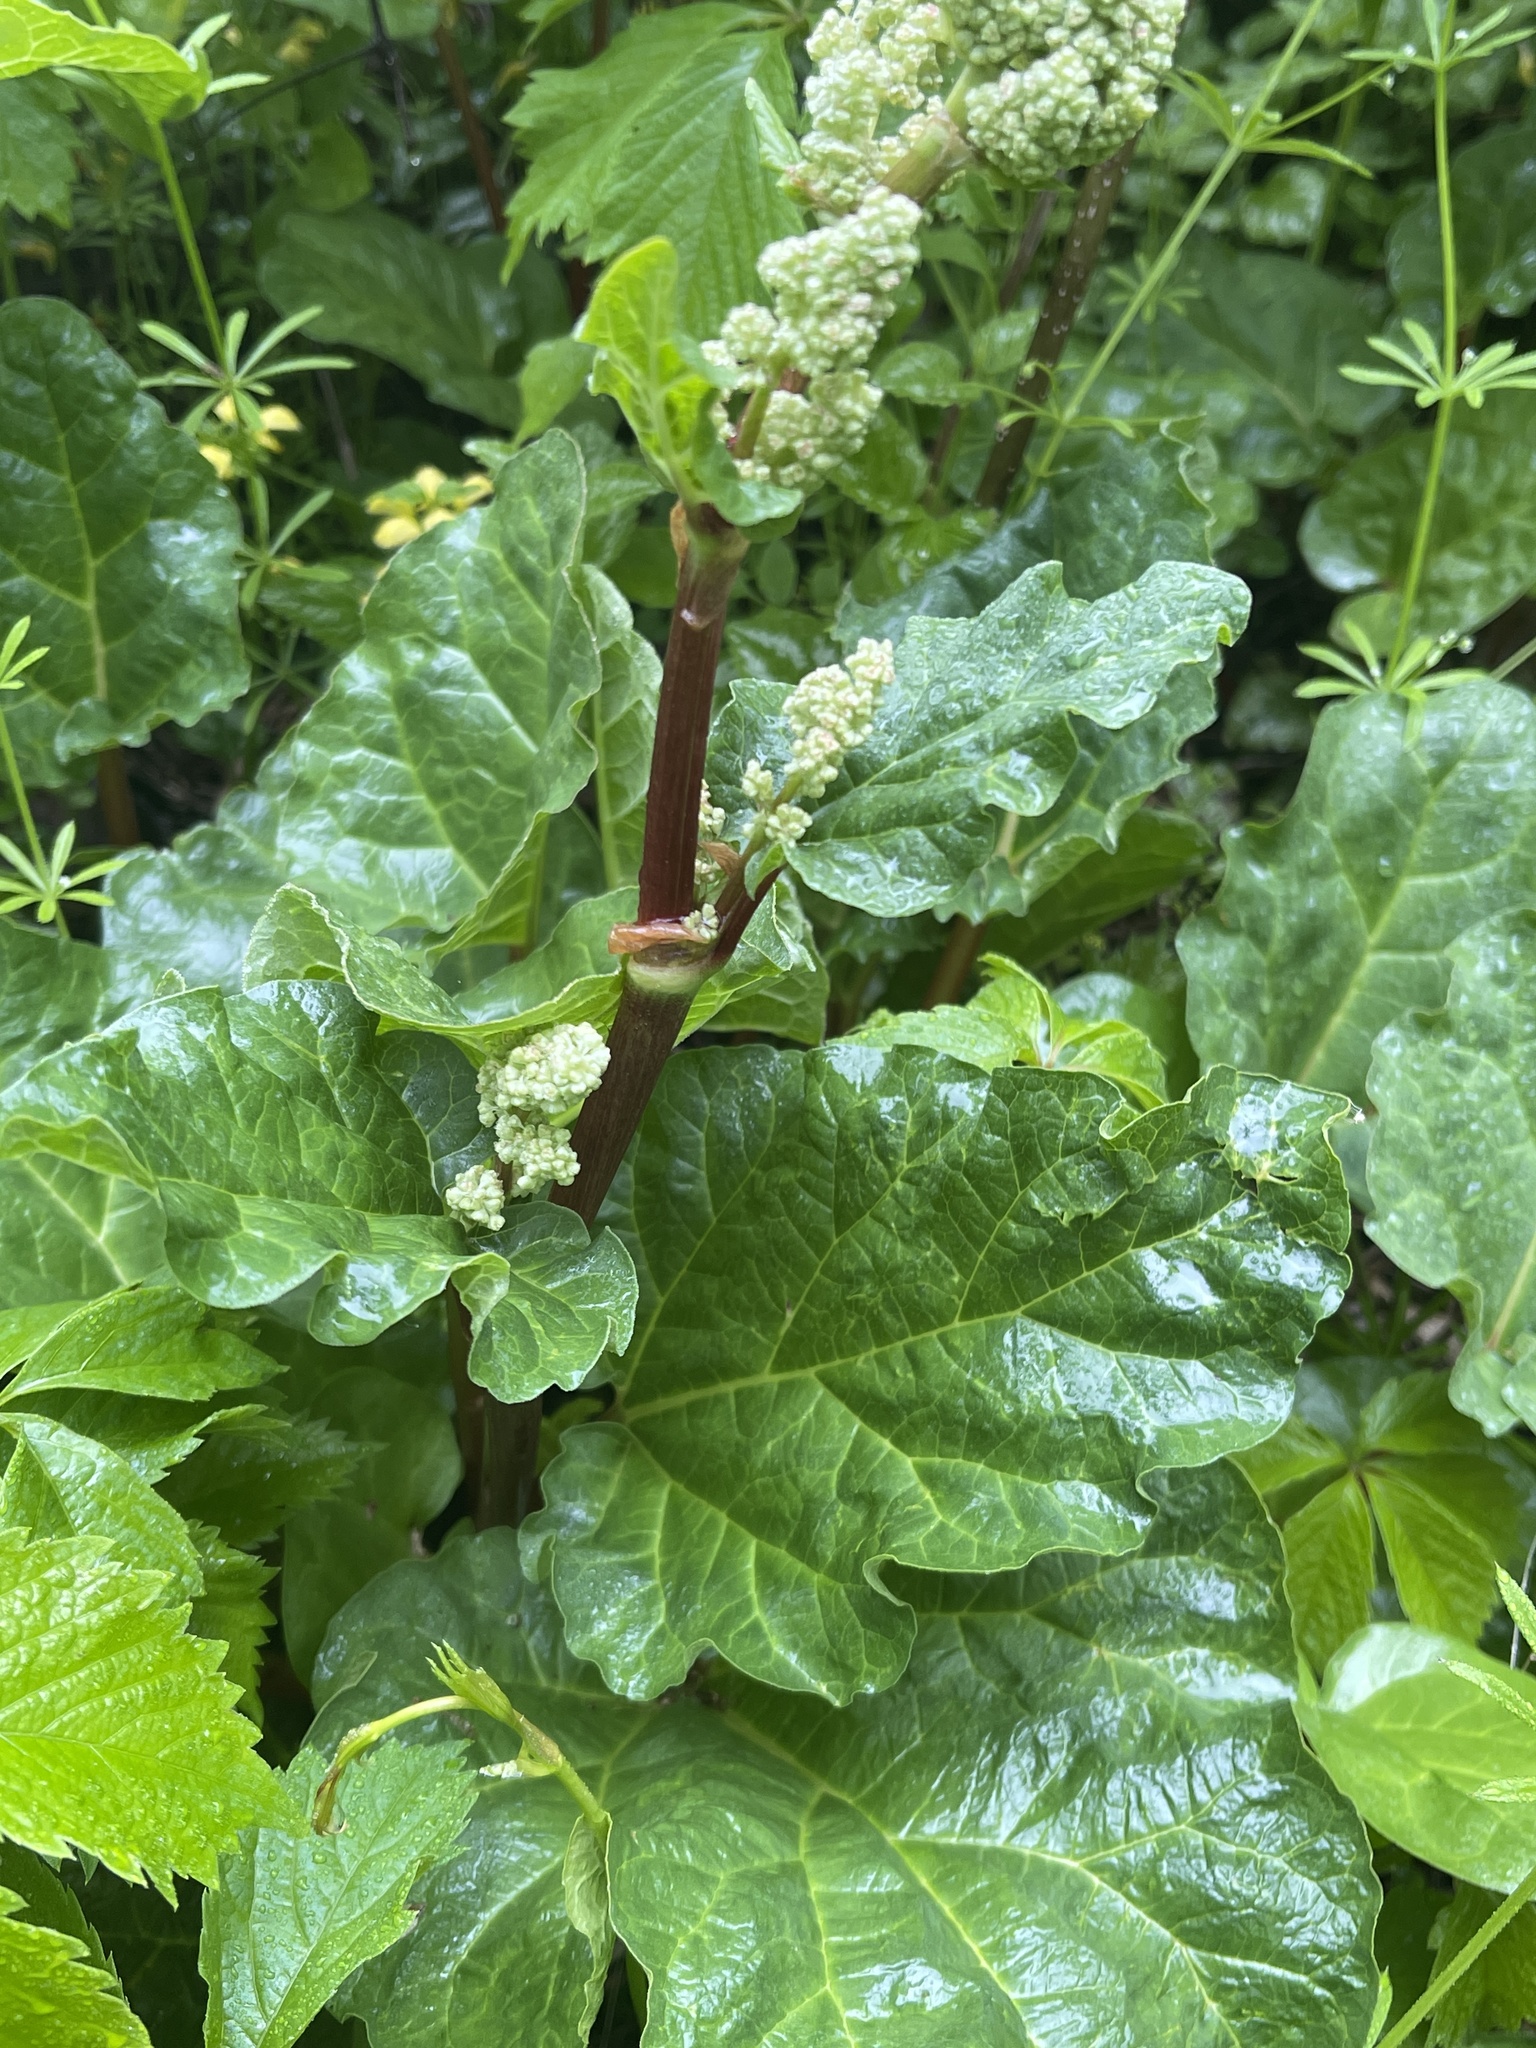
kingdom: Plantae
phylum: Tracheophyta
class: Magnoliopsida
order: Caryophyllales
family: Polygonaceae
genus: Rheum
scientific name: Rheum rhabarbarum
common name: Garden rhubarb
